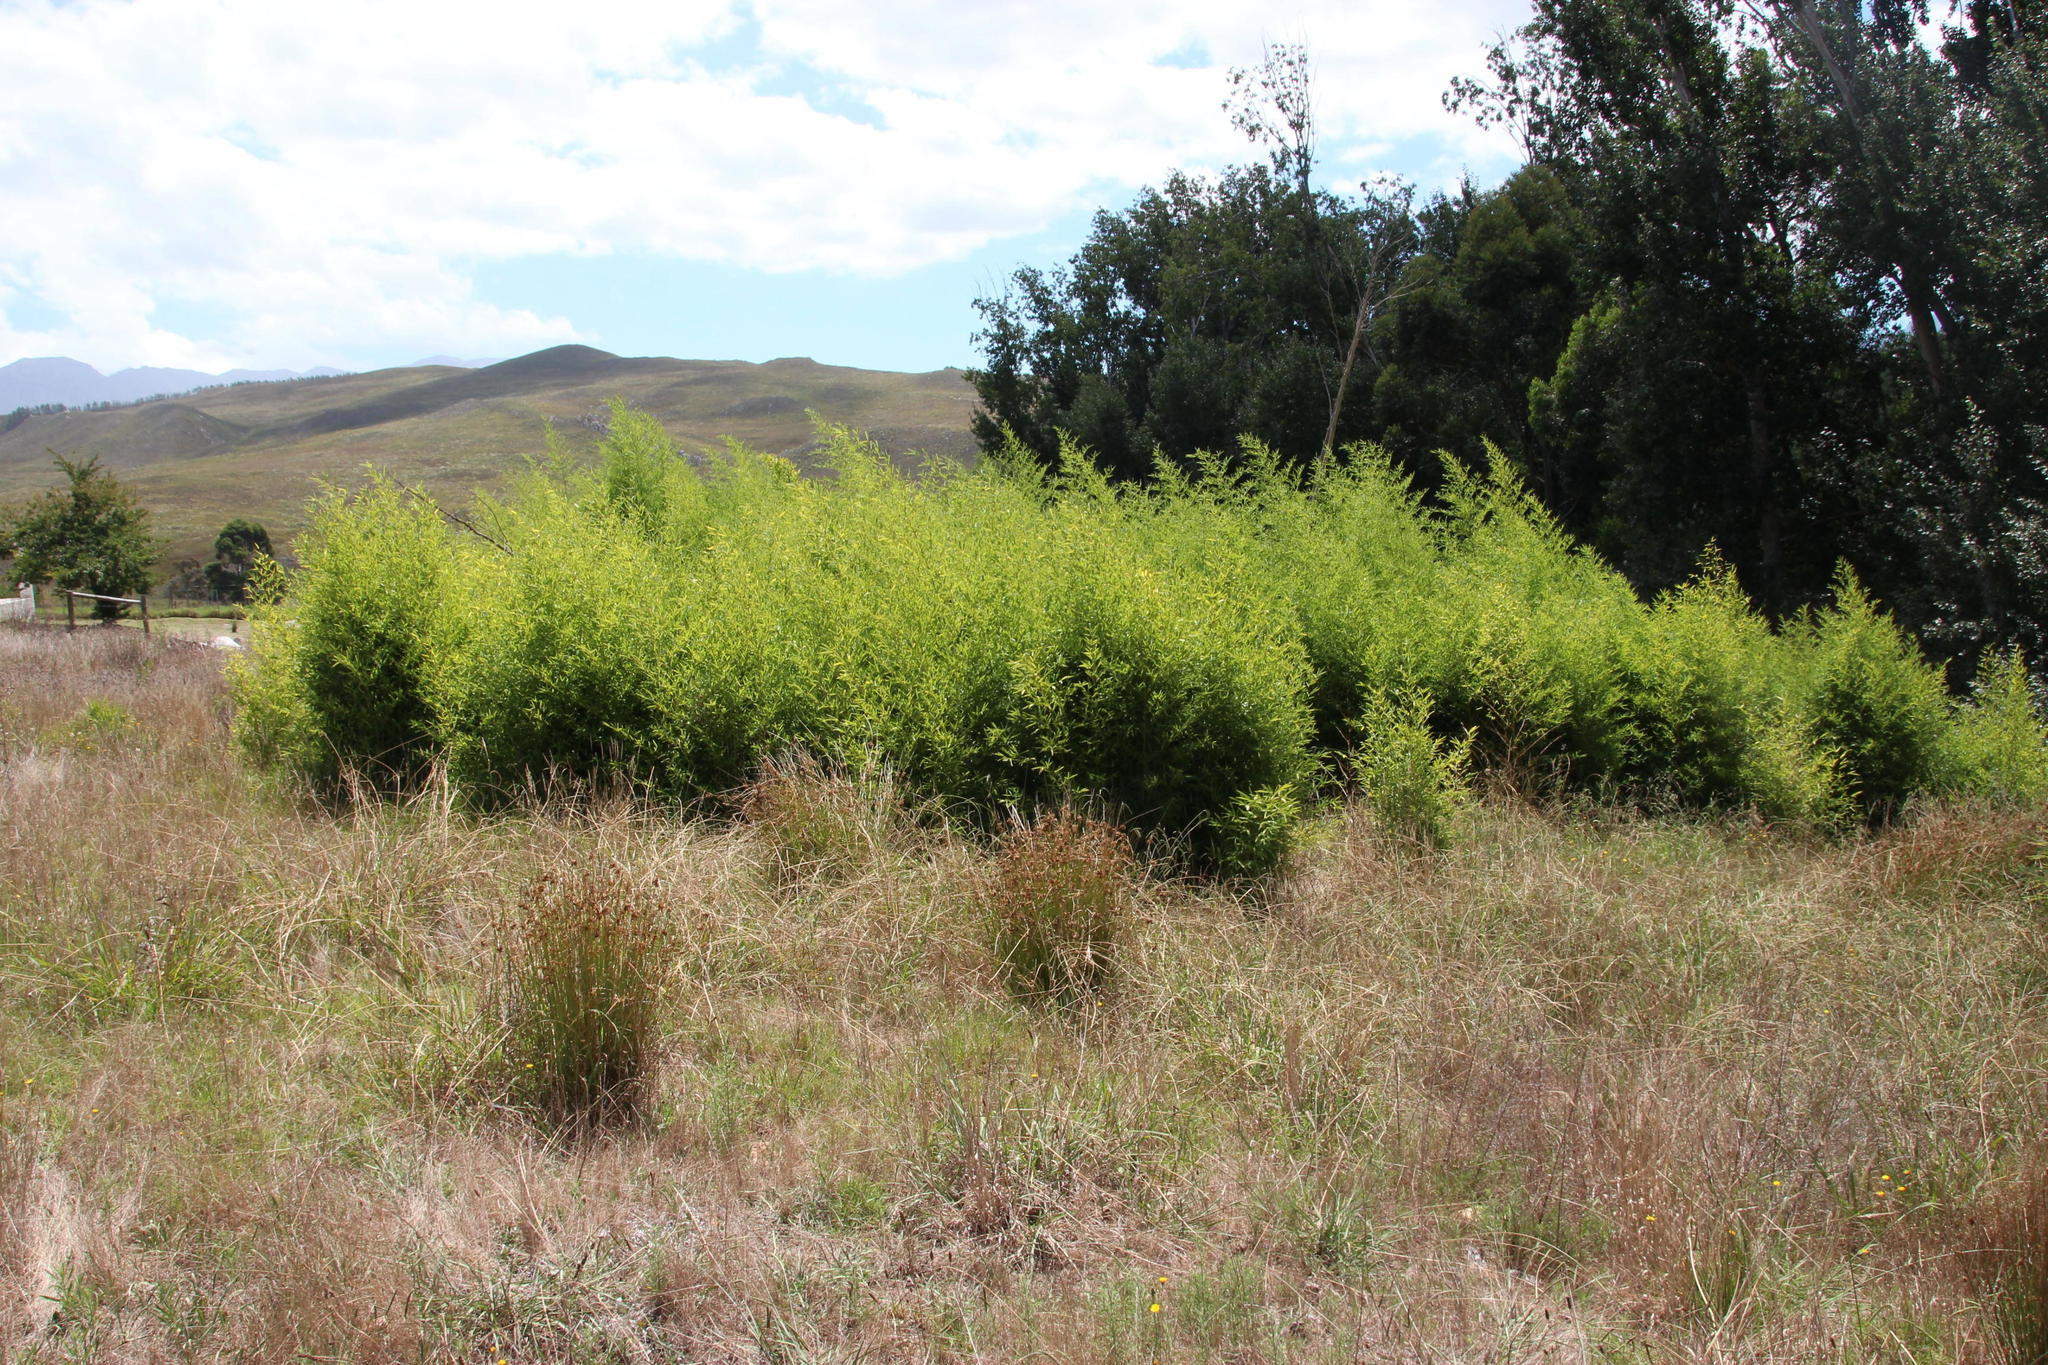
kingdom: Plantae
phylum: Tracheophyta
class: Liliopsida
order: Poales
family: Poaceae
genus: Phyllostachys
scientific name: Phyllostachys aurea
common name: Golden bamboo
